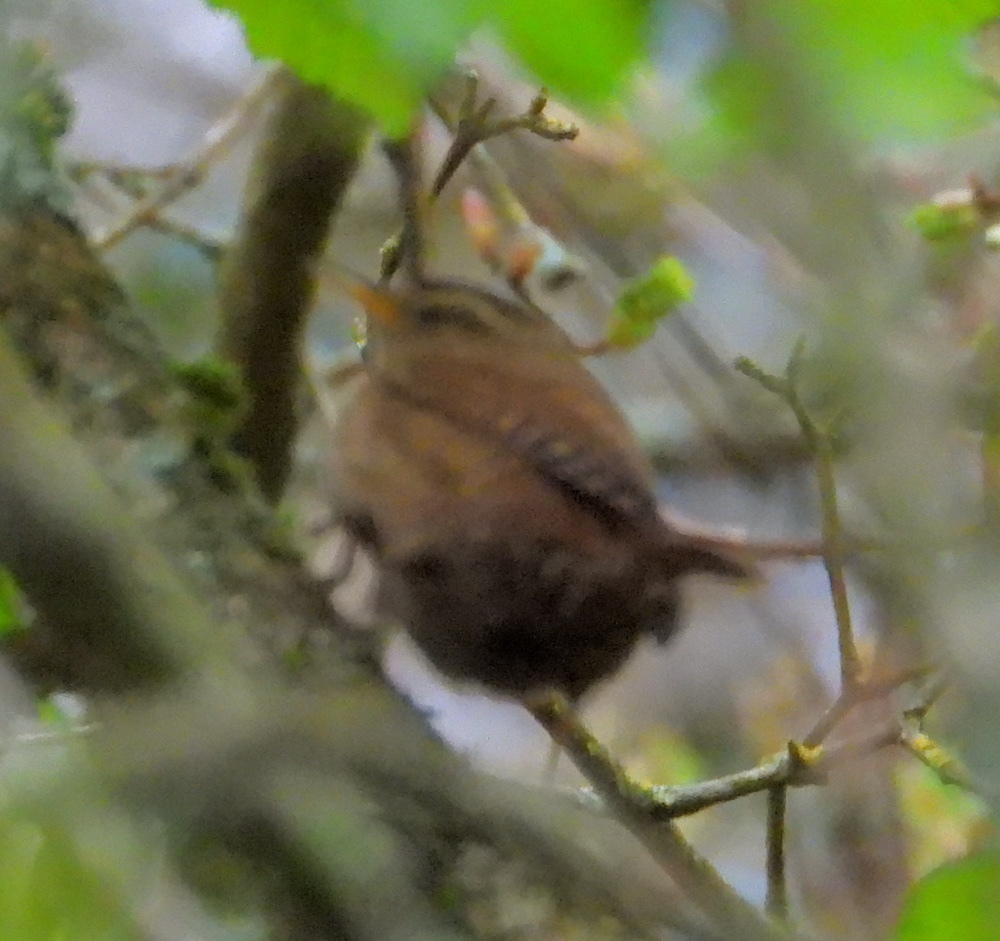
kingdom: Animalia
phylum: Chordata
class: Aves
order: Passeriformes
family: Troglodytidae
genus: Troglodytes
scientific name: Troglodytes troglodytes
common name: Eurasian wren
